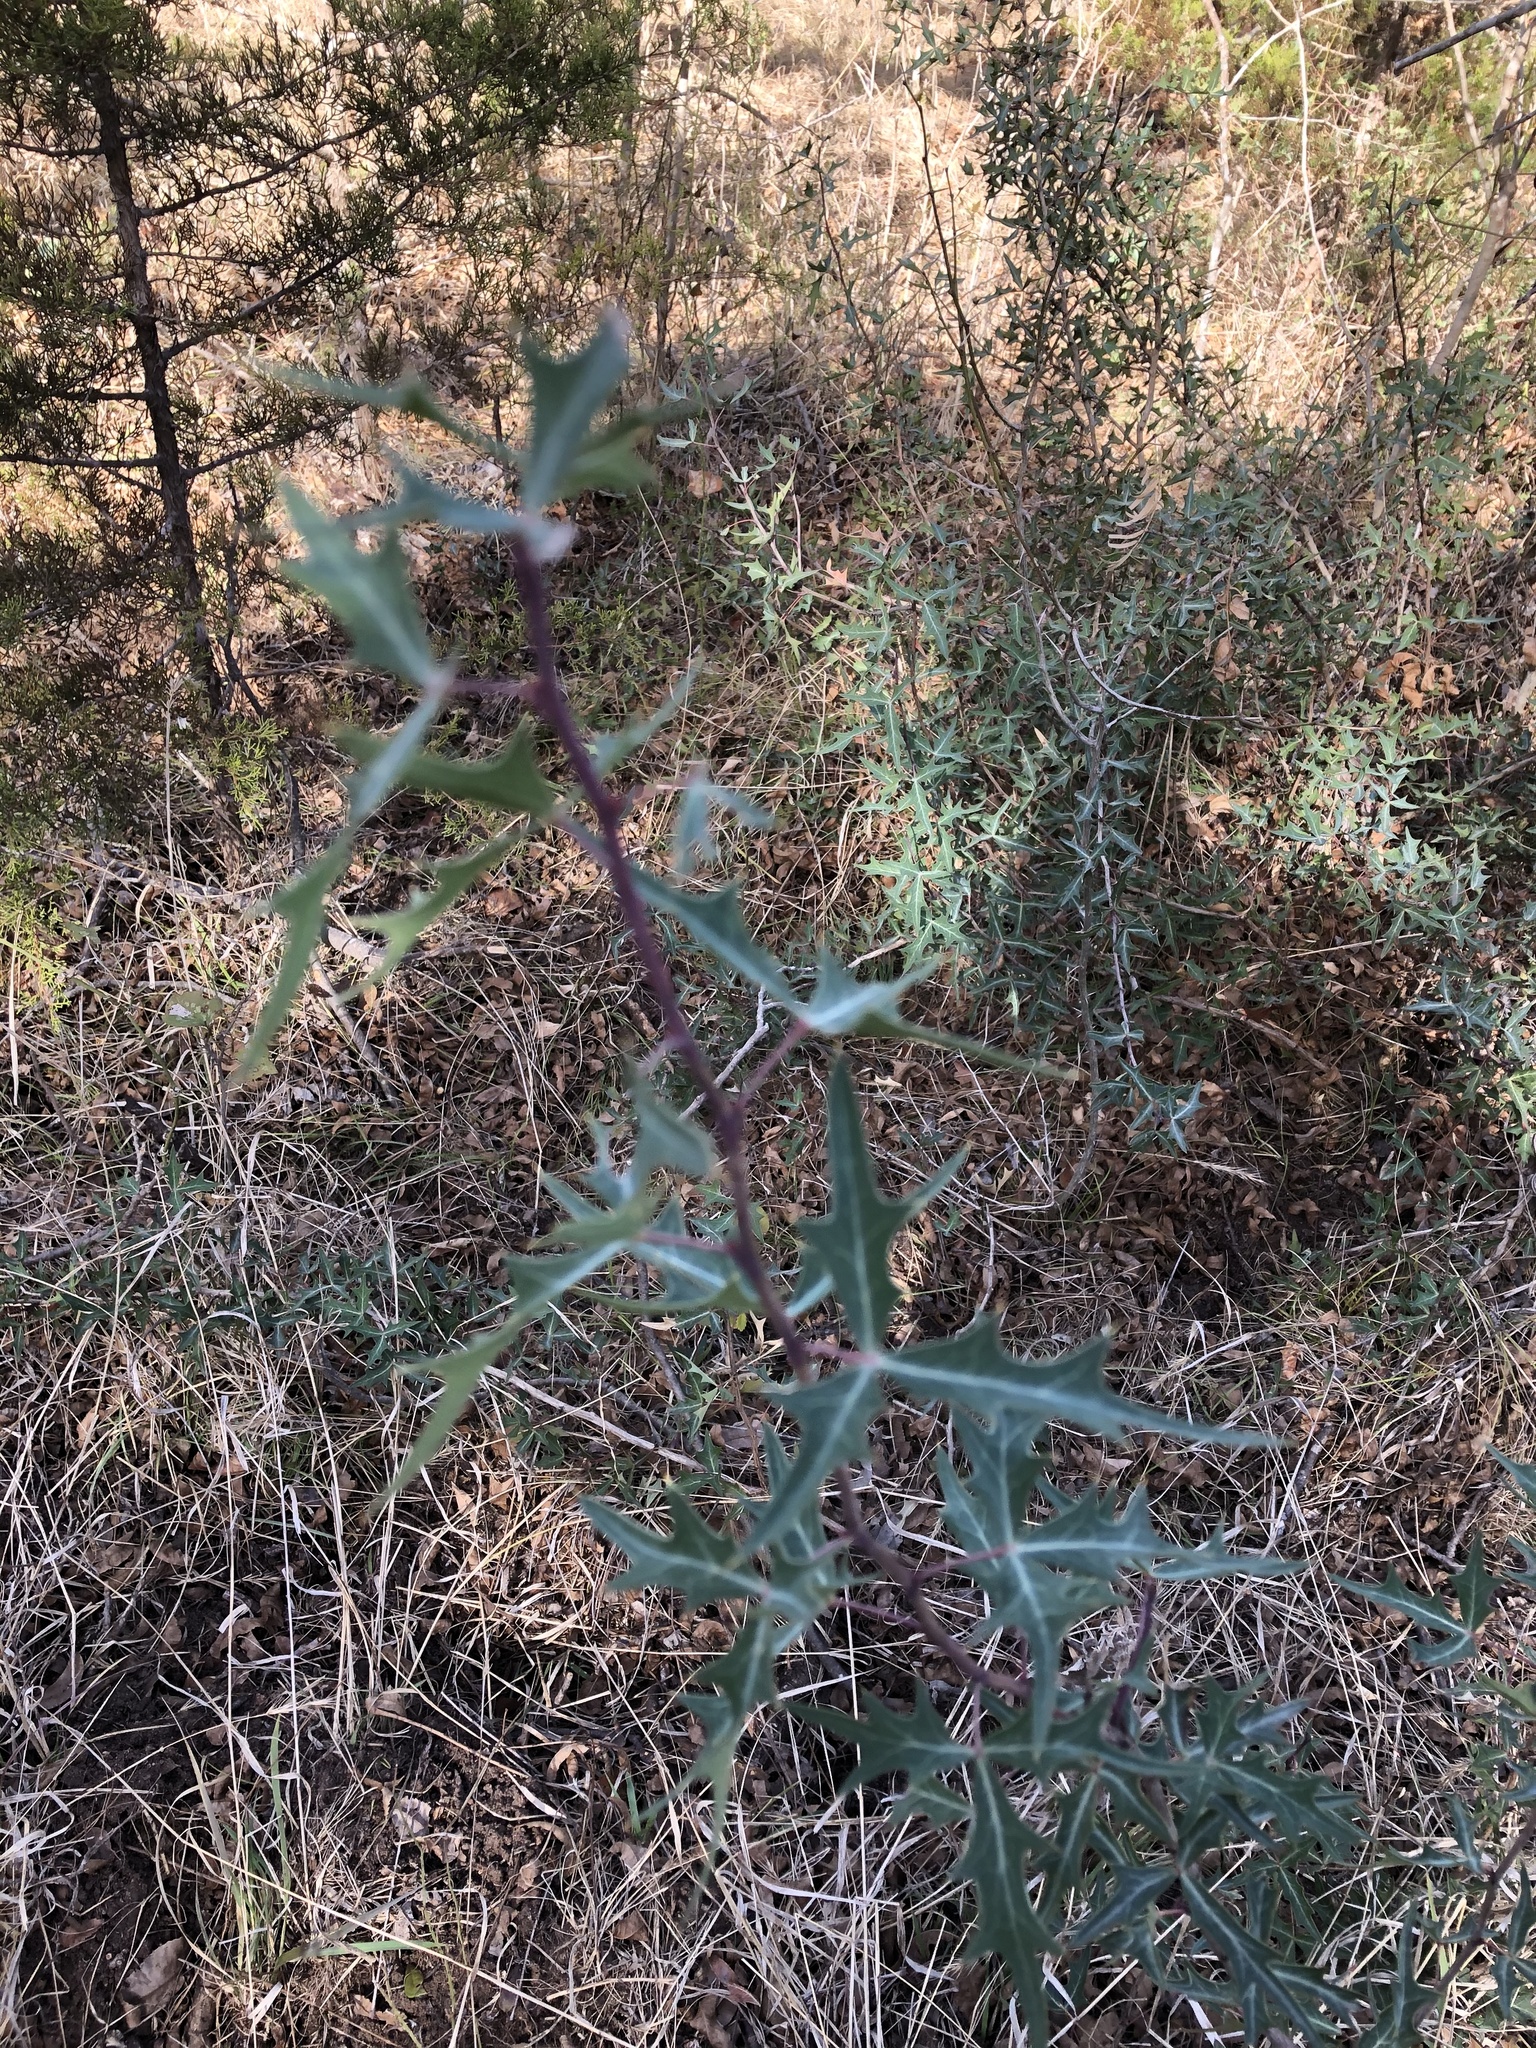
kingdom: Plantae
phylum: Tracheophyta
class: Magnoliopsida
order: Ranunculales
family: Berberidaceae
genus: Alloberberis
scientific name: Alloberberis trifoliolata
